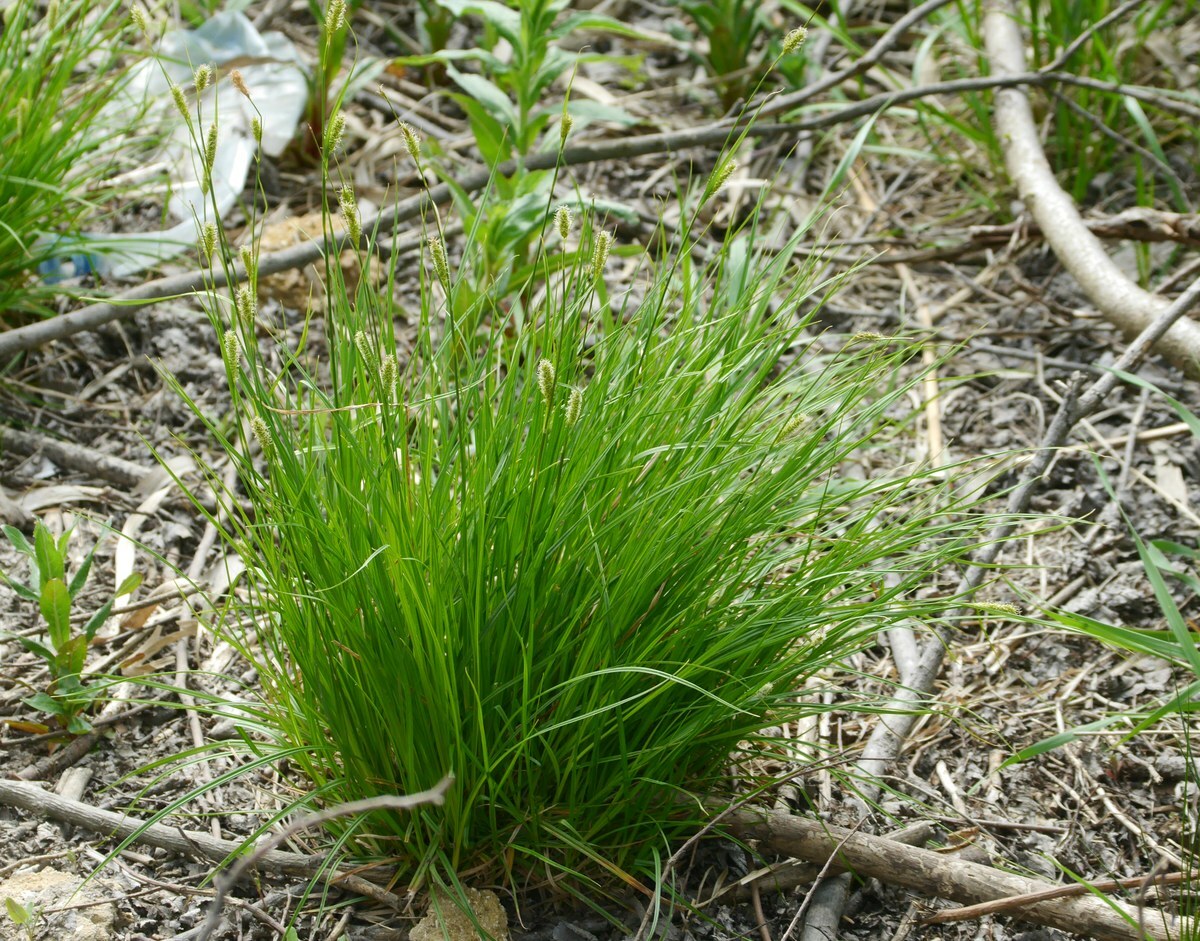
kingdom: Plantae
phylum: Tracheophyta
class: Liliopsida
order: Poales
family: Cyperaceae
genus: Carex
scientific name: Carex melanostachya
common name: Black-spiked sedge
